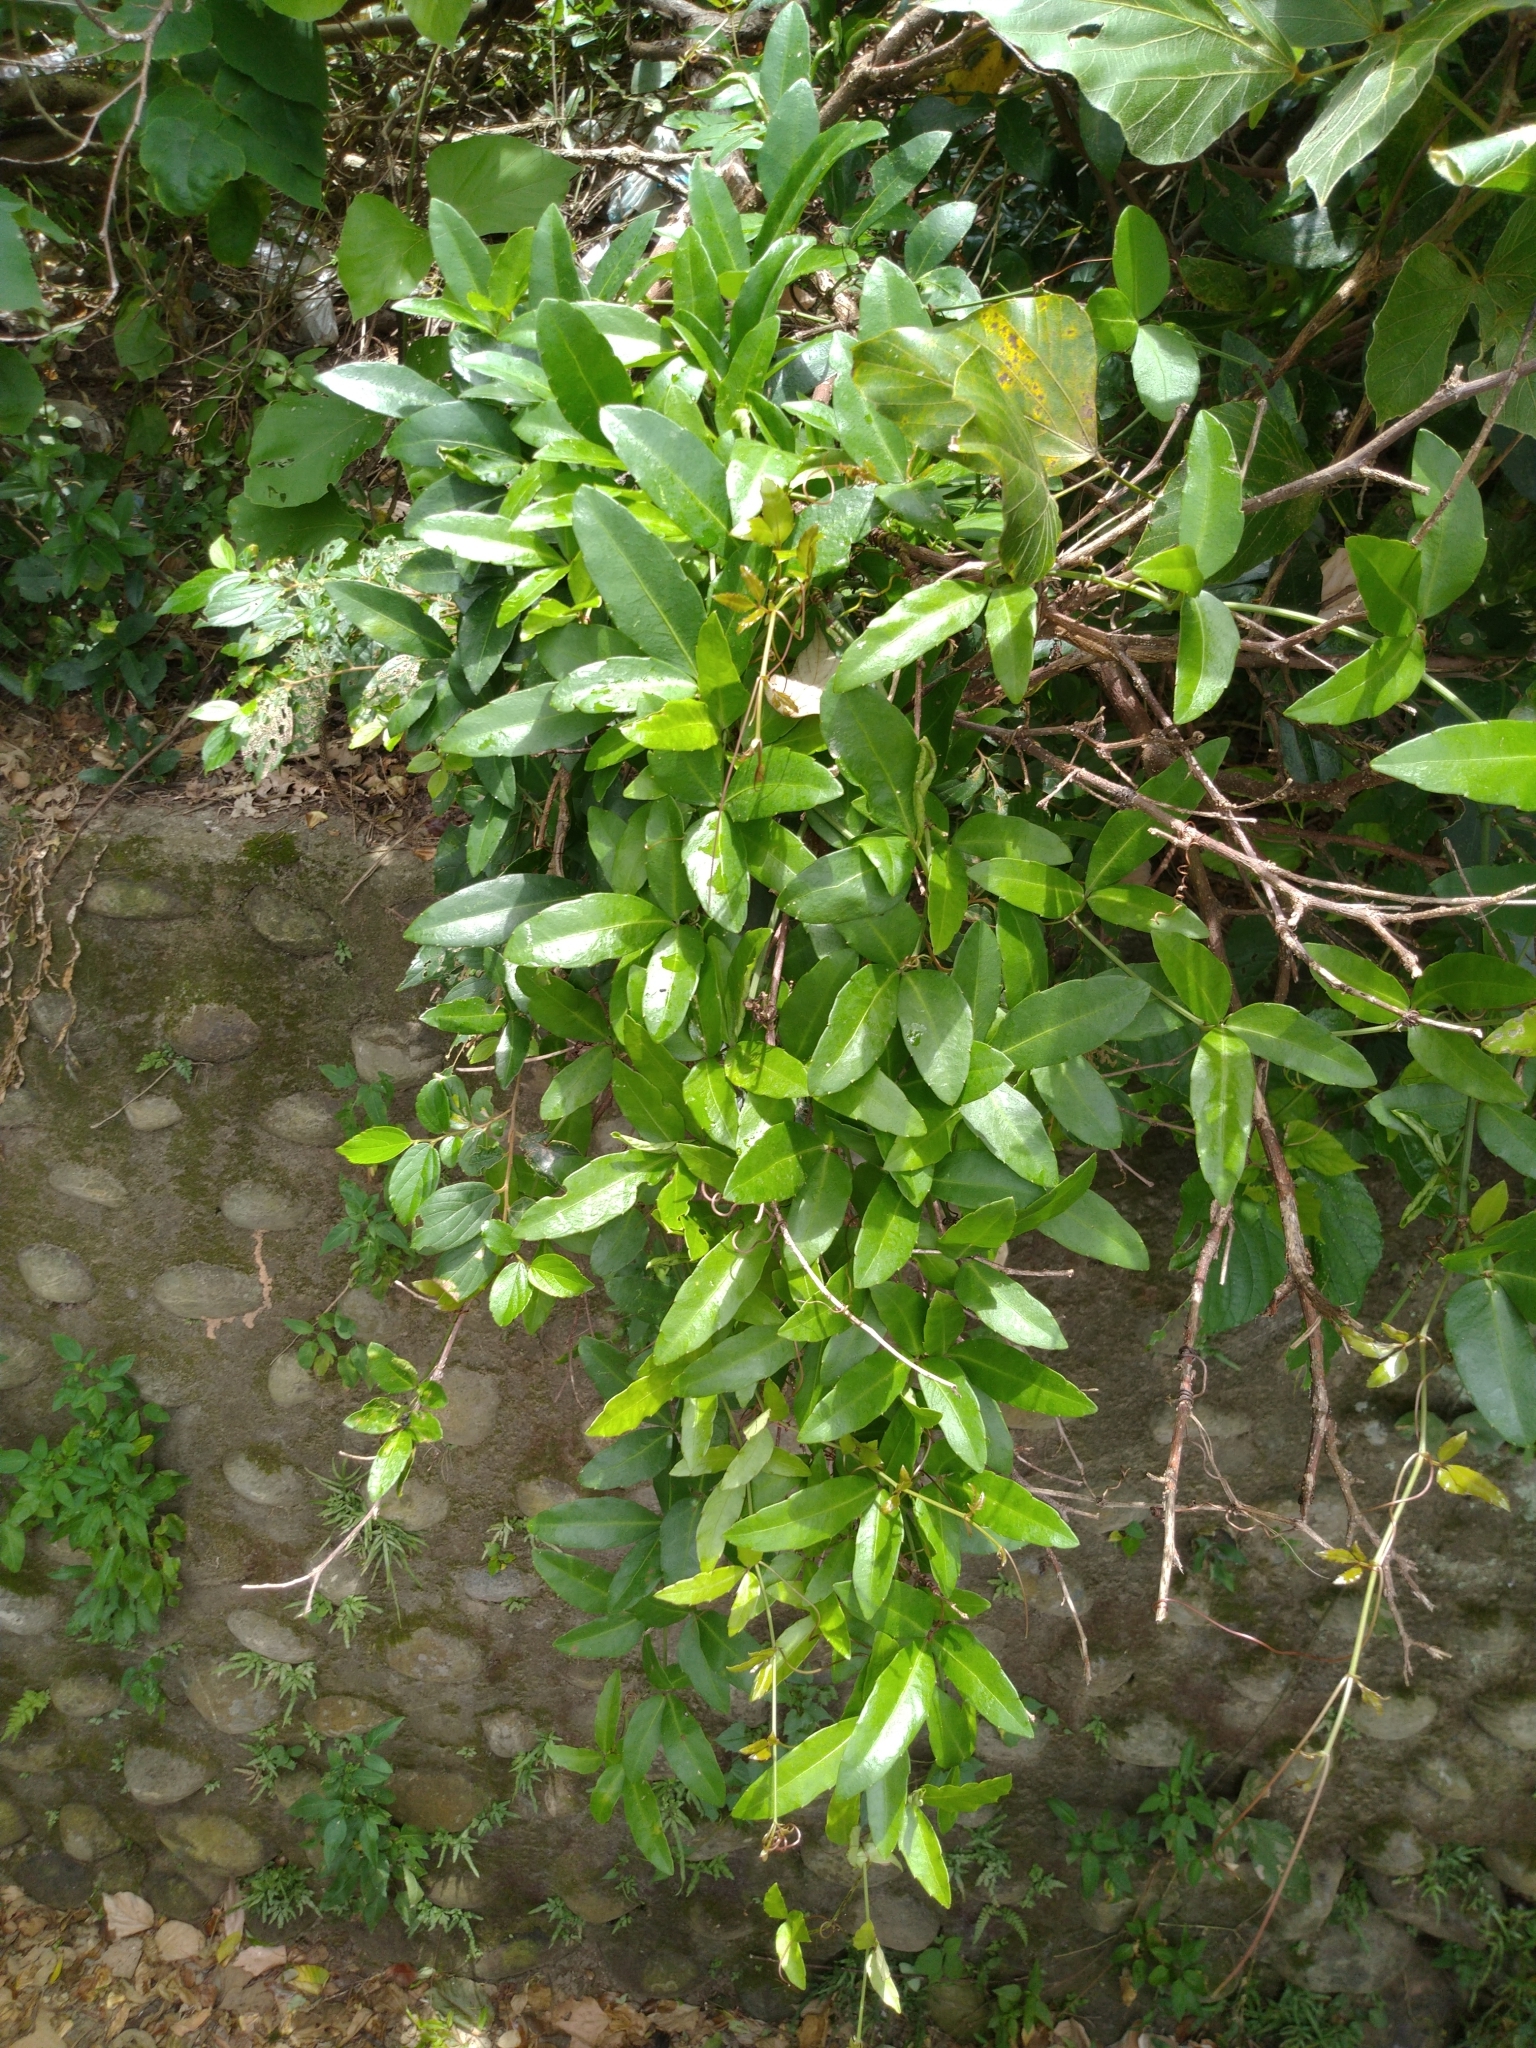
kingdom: Plantae
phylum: Tracheophyta
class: Magnoliopsida
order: Vitales
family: Vitaceae
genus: Tetrastigma
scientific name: Tetrastigma formosanum
